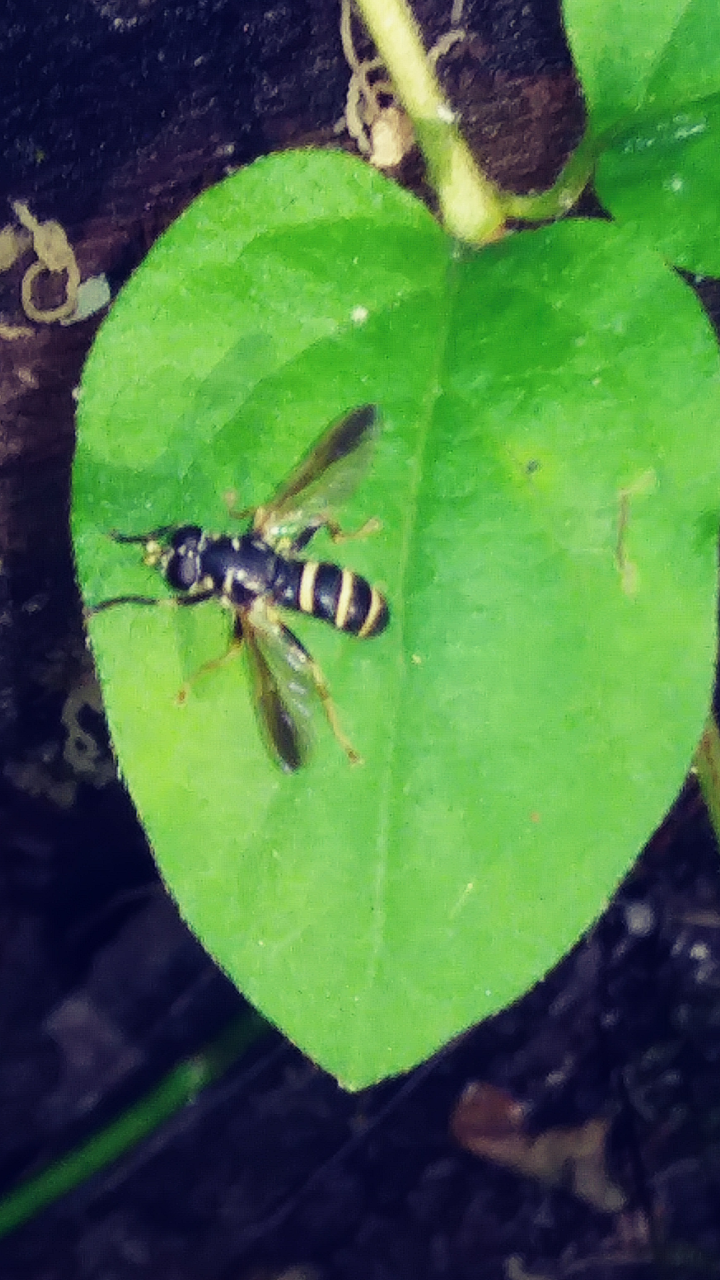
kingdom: Animalia
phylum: Arthropoda
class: Insecta
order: Diptera
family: Syrphidae
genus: Temnostoma
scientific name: Temnostoma
